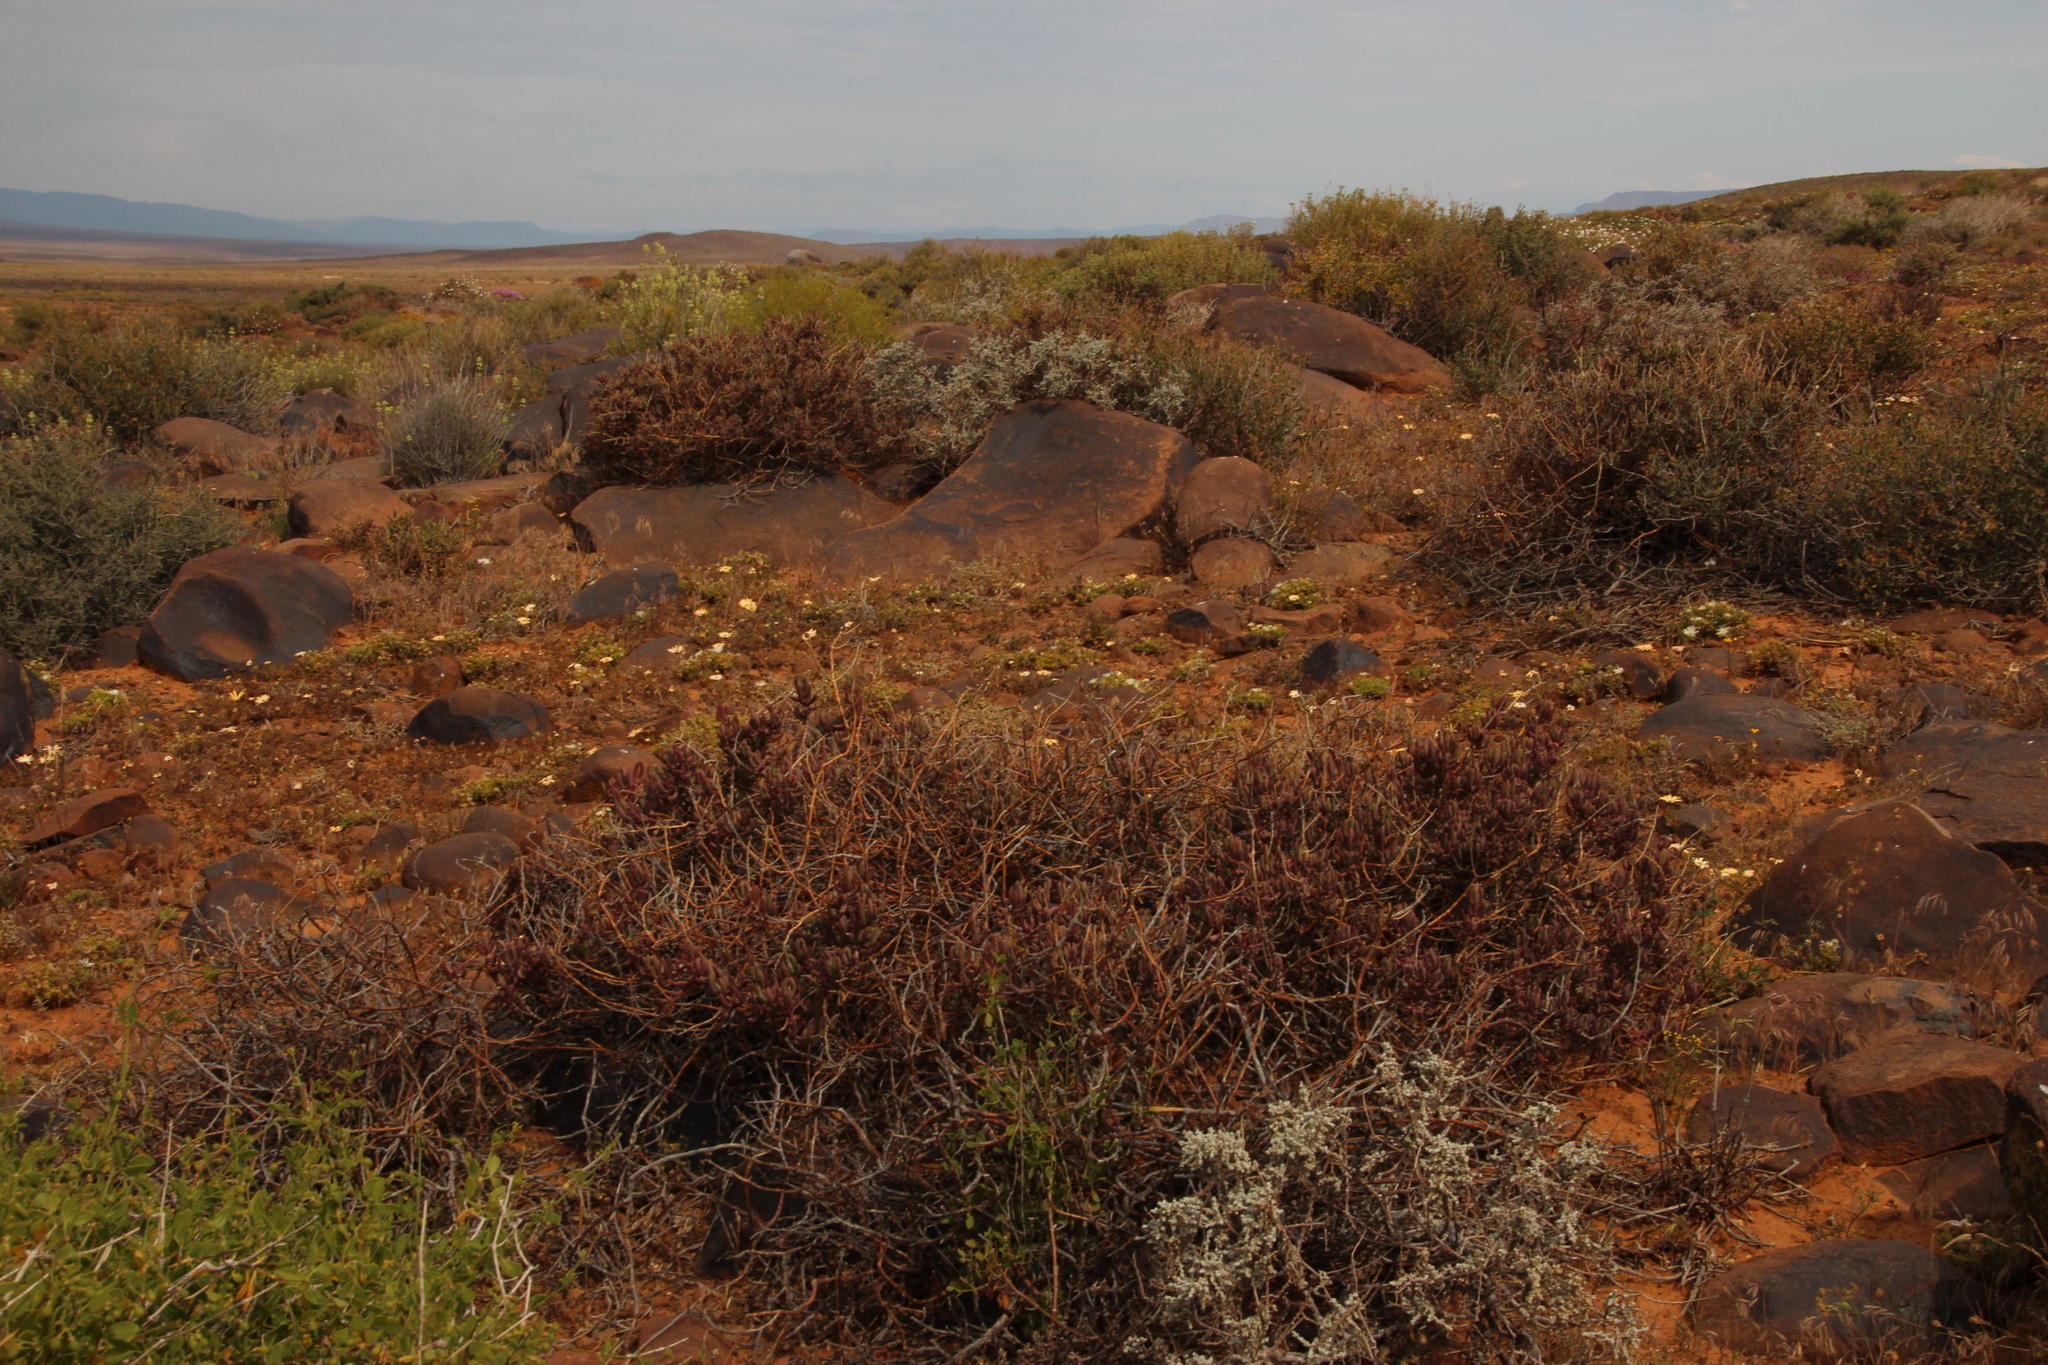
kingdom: Plantae
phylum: Tracheophyta
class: Magnoliopsida
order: Caryophyllales
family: Aizoaceae
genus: Mesembryanthemum
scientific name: Mesembryanthemum tetragonum
